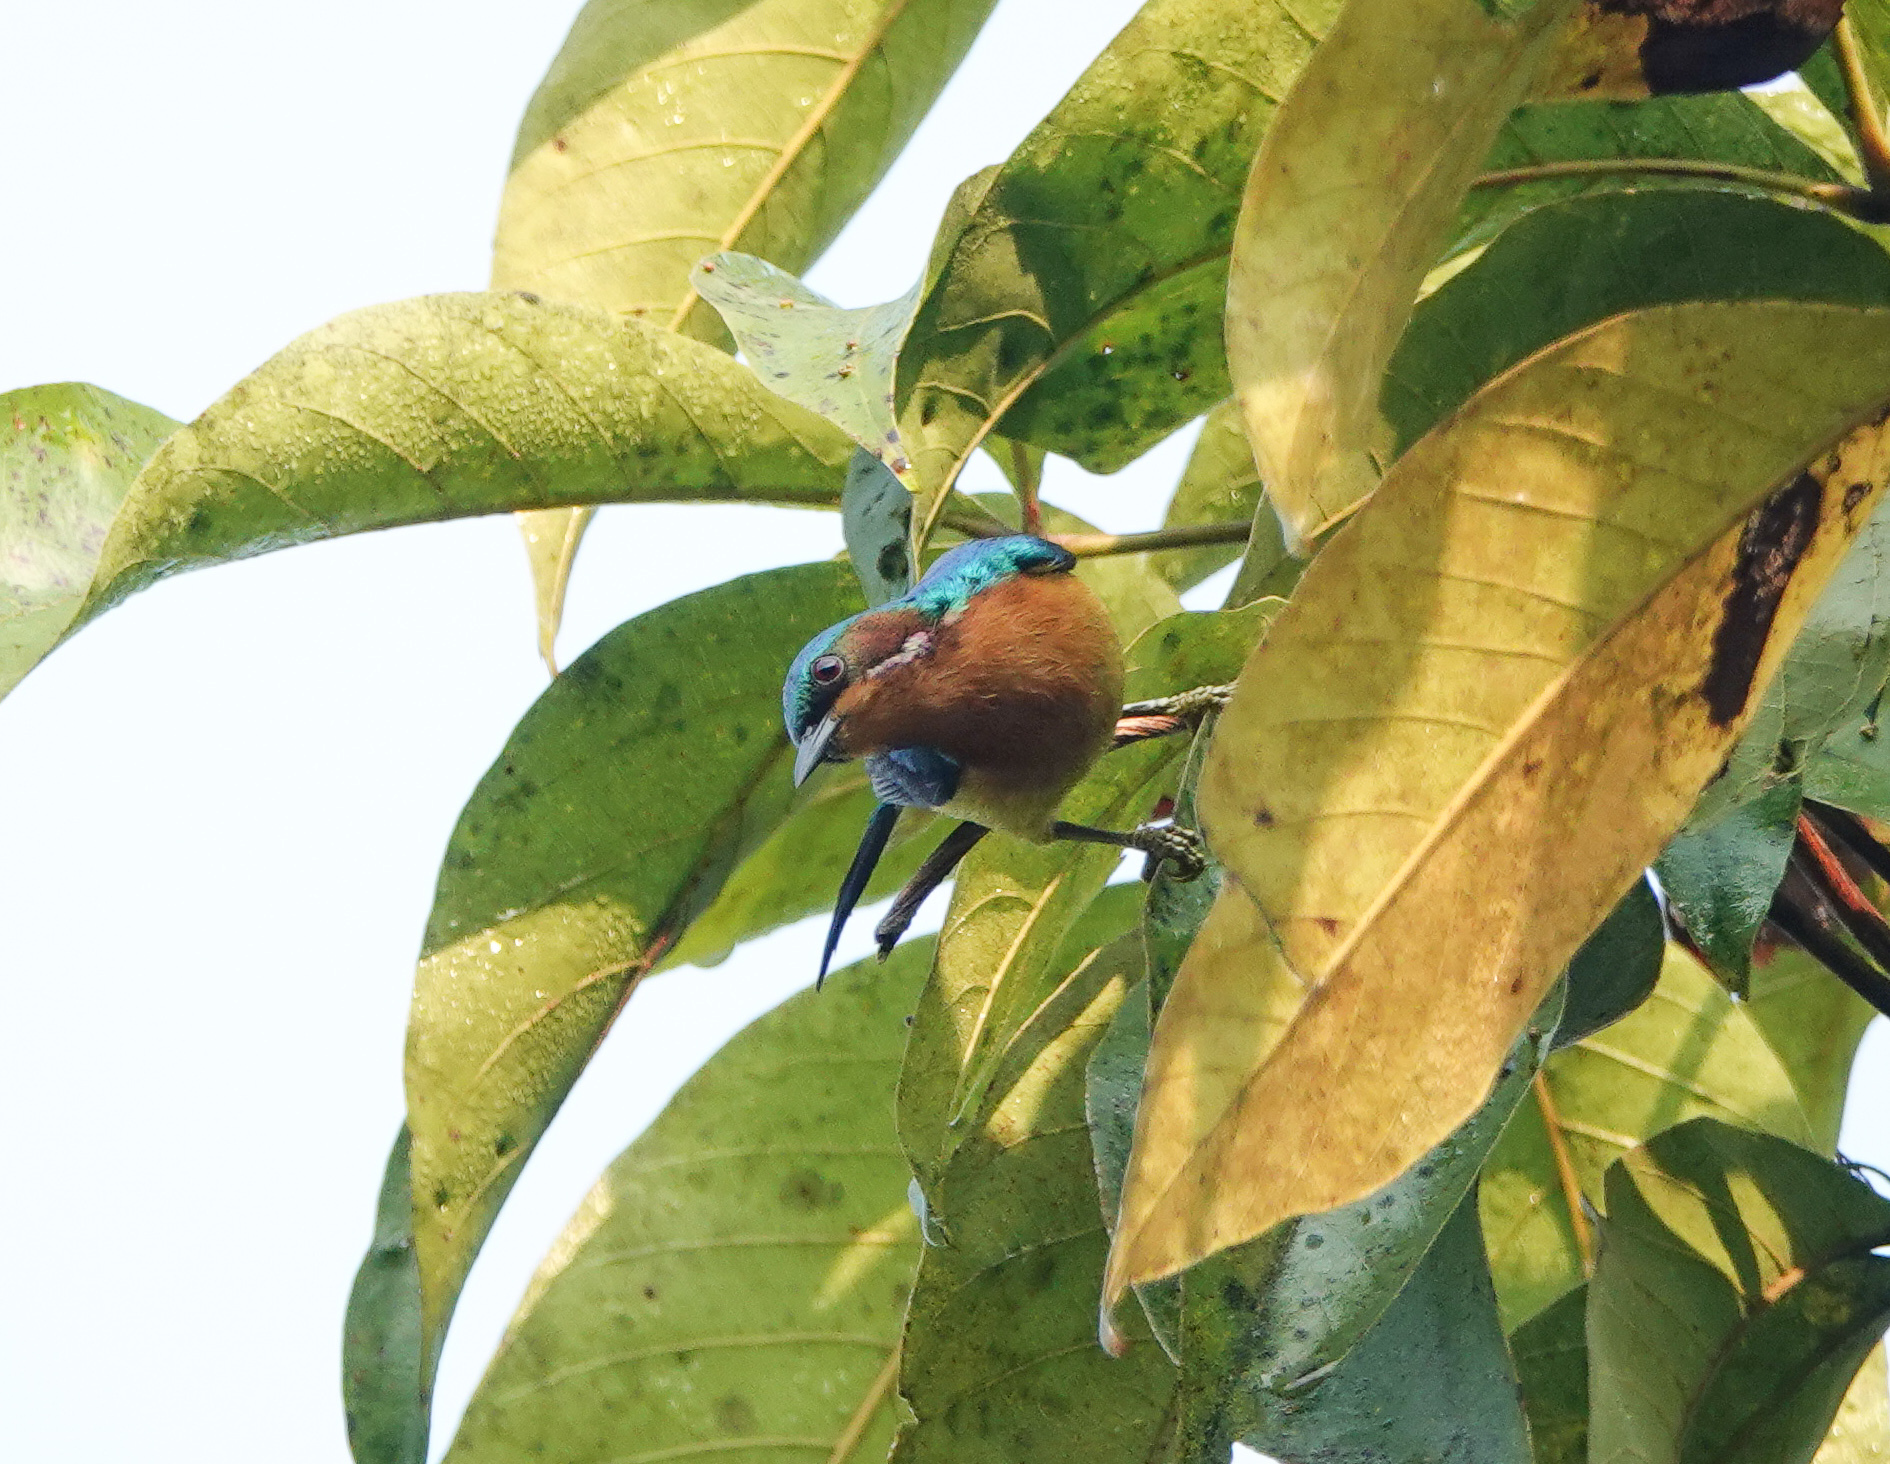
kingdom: Animalia
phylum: Chordata
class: Aves
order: Passeriformes
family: Nectariniidae
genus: Chalcoparia
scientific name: Chalcoparia singalensis
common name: Ruby-cheeked sunbird
